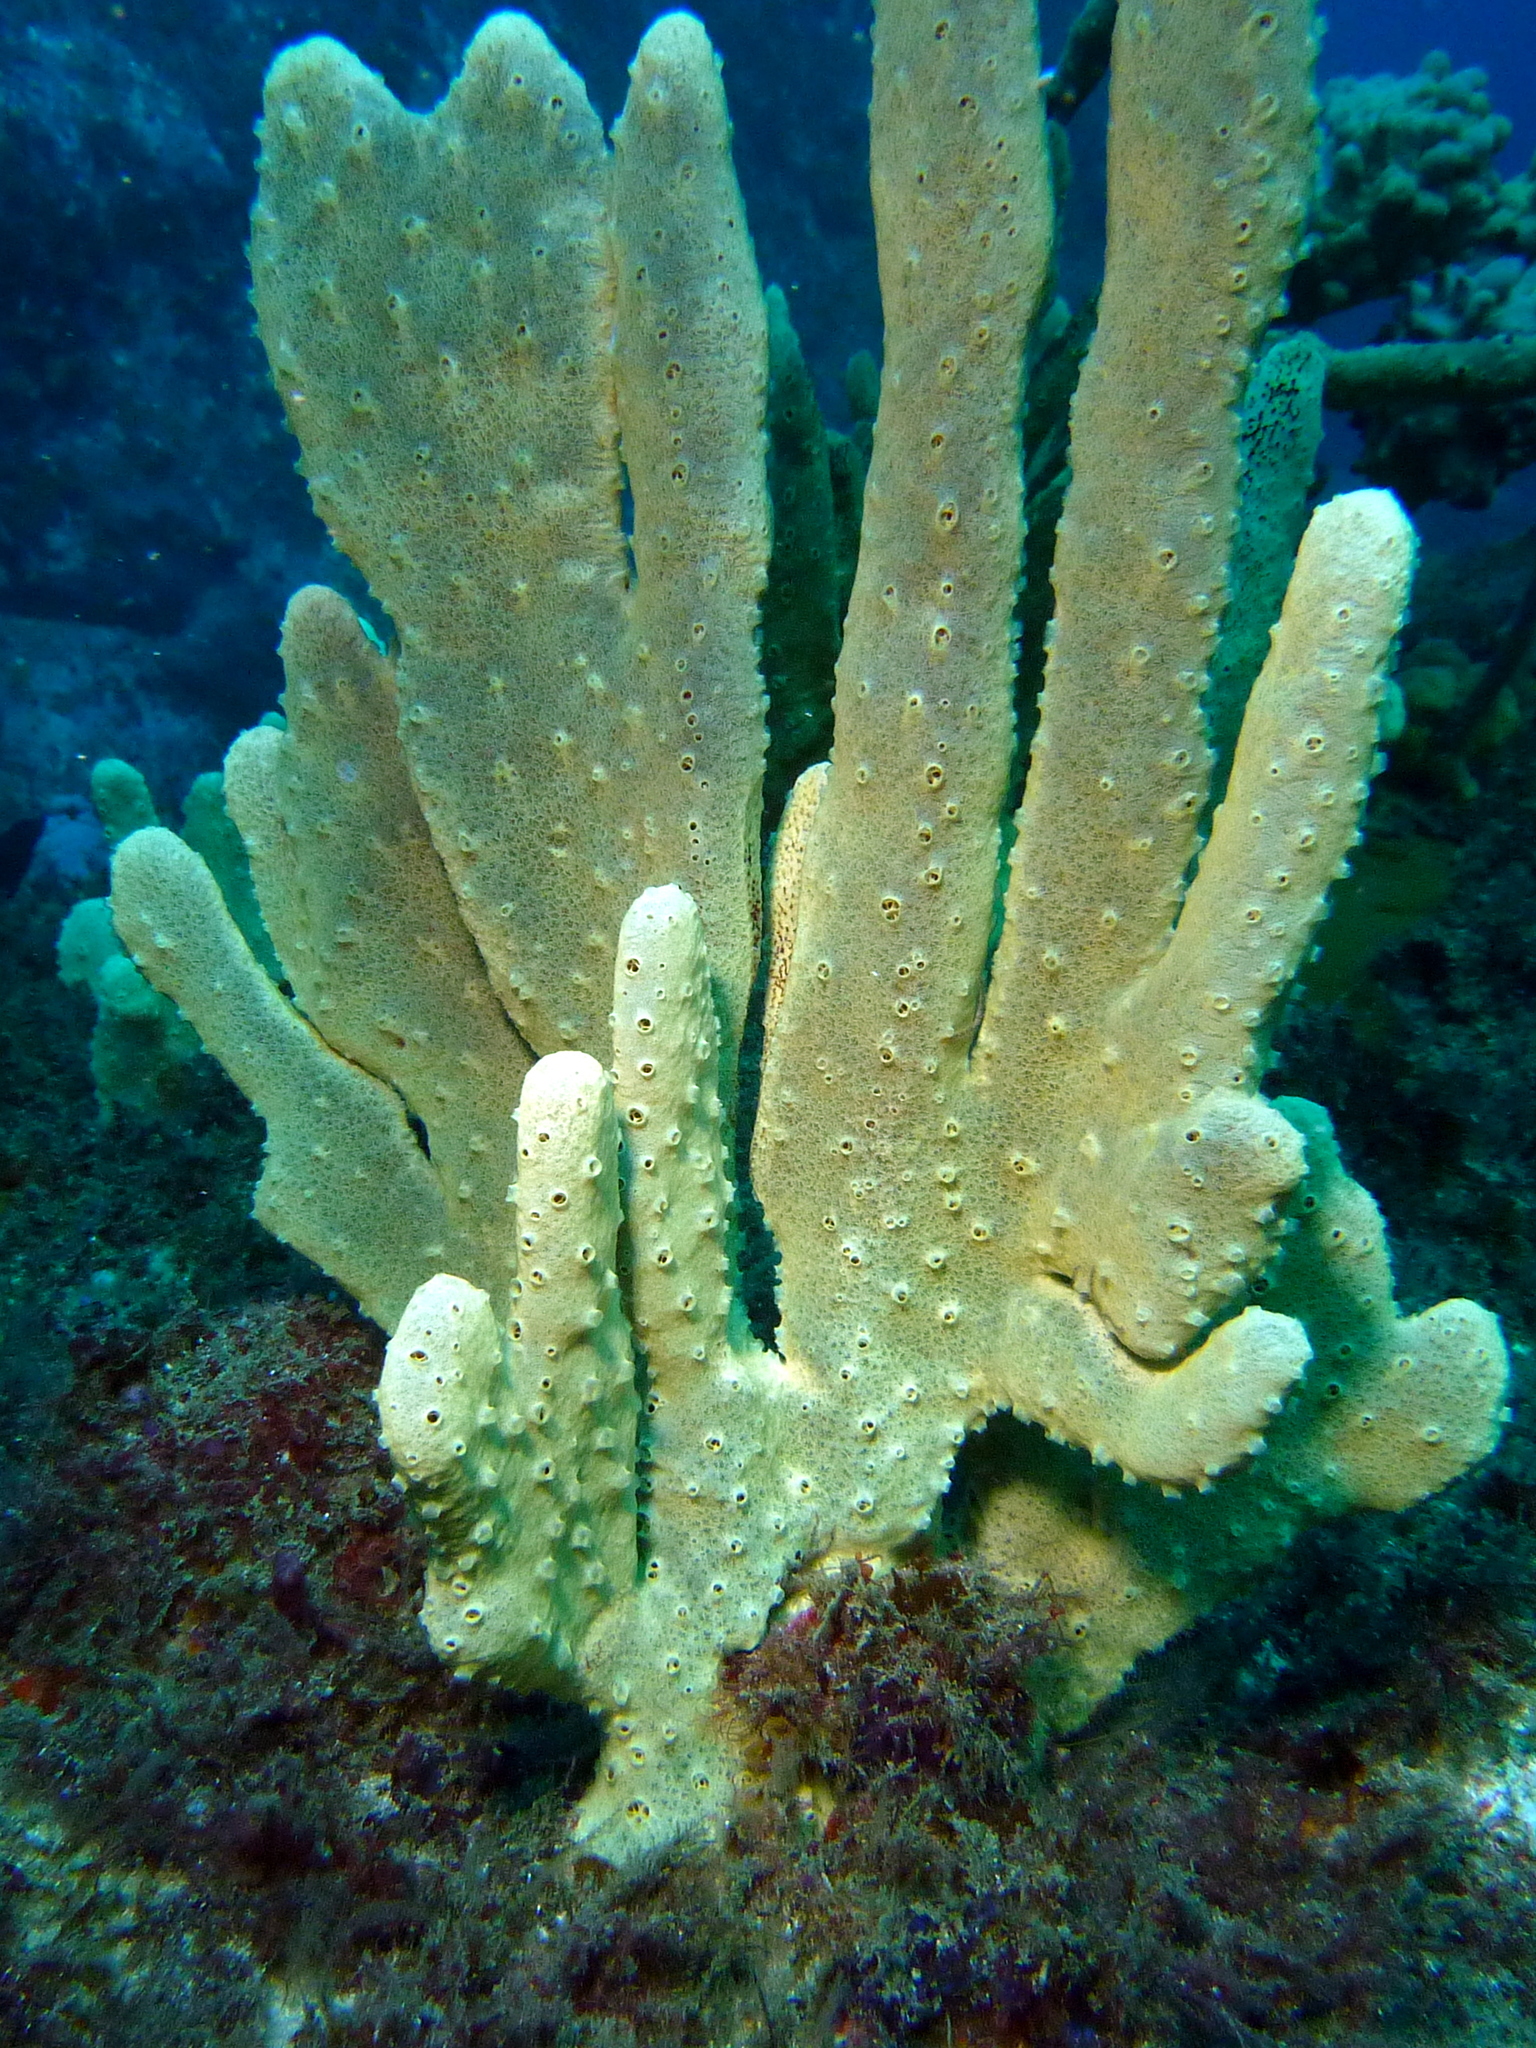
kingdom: Animalia
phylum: Porifera
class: Demospongiae
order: Haplosclerida
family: Callyspongiidae
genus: Callyspongia
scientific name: Callyspongia manus
